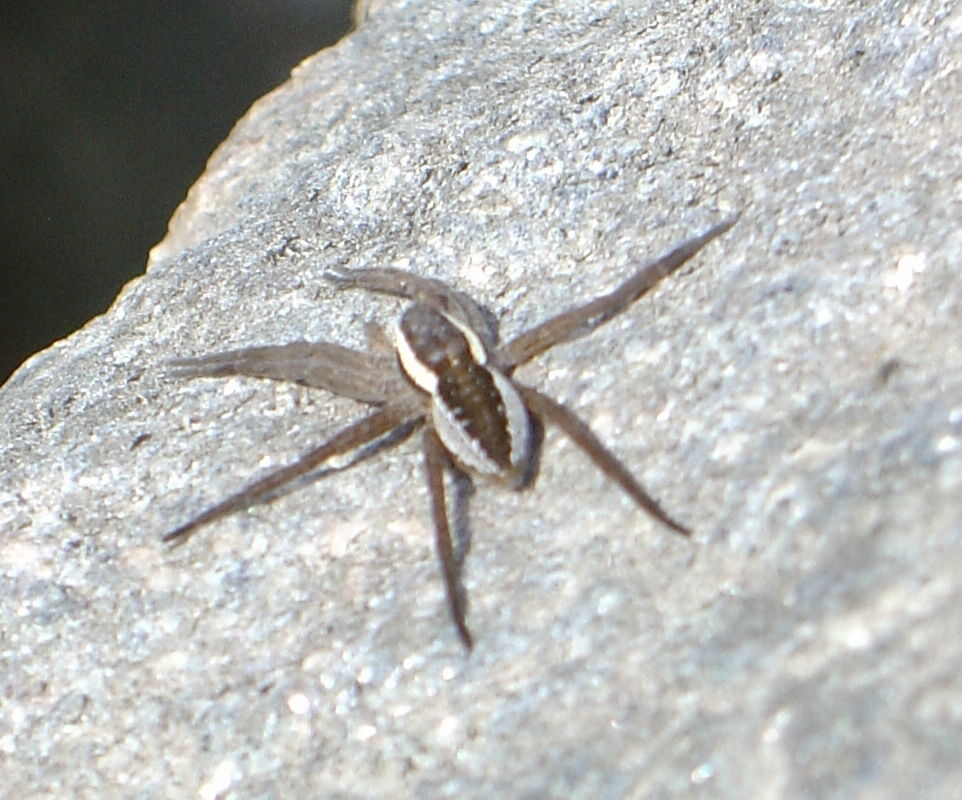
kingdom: Animalia
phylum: Arthropoda
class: Arachnida
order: Araneae
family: Pisauridae
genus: Dolomedes
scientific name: Dolomedes fimbriatus
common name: Raft spider
